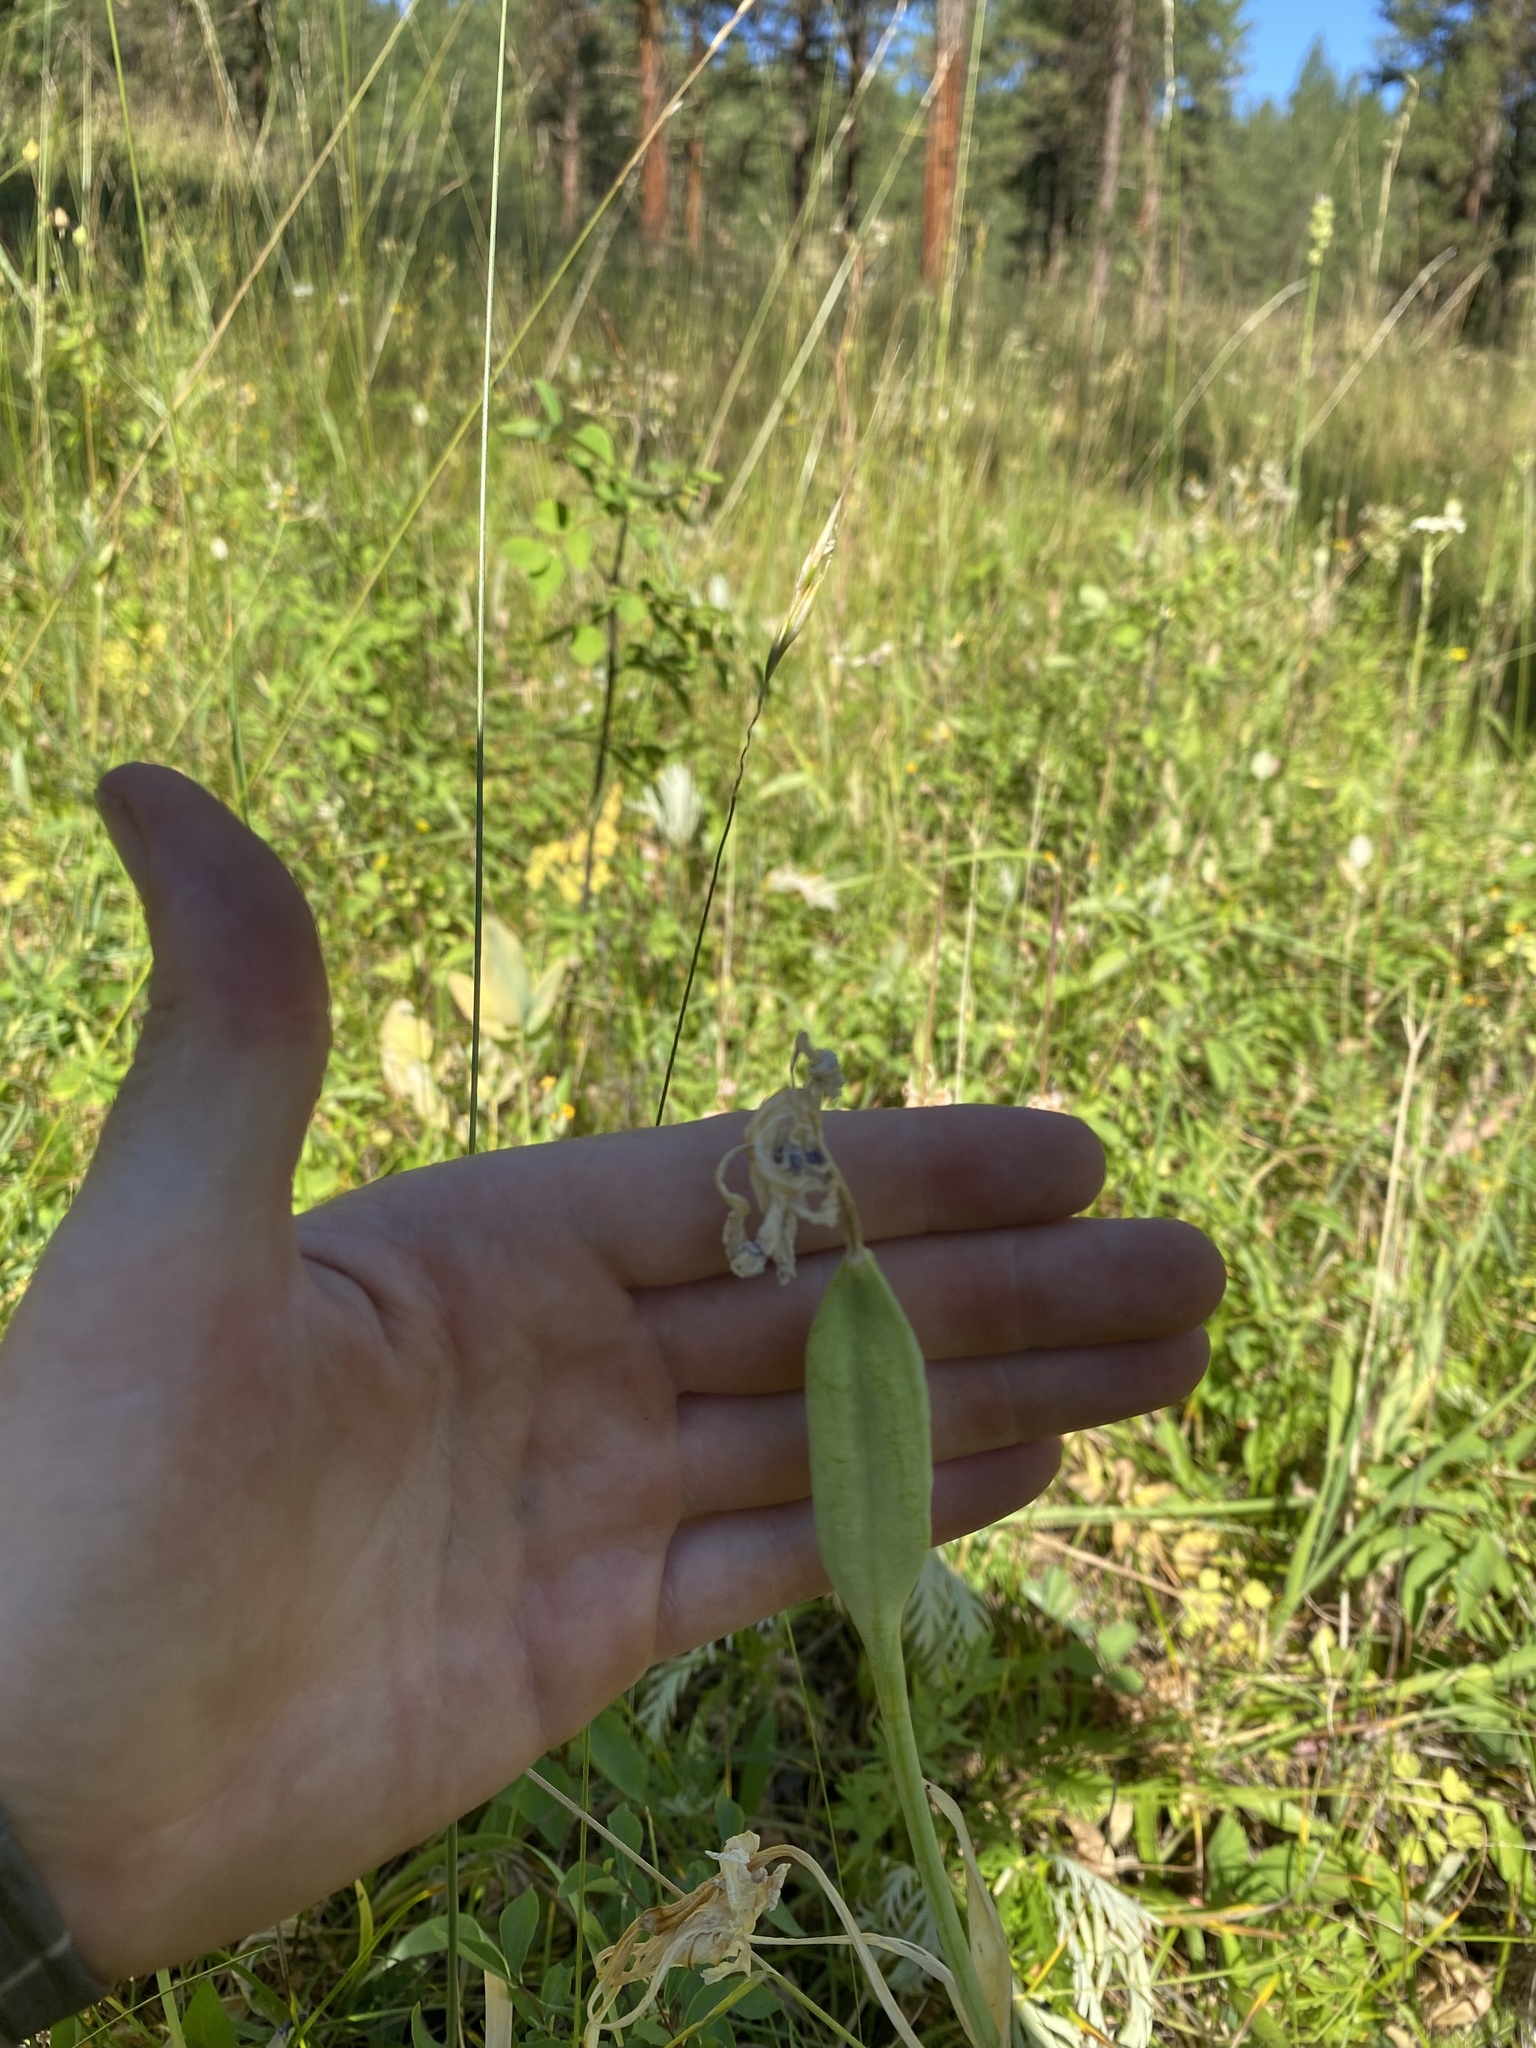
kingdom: Plantae
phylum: Tracheophyta
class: Liliopsida
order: Asparagales
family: Iridaceae
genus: Iris
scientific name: Iris missouriensis
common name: Rocky mountain iris
